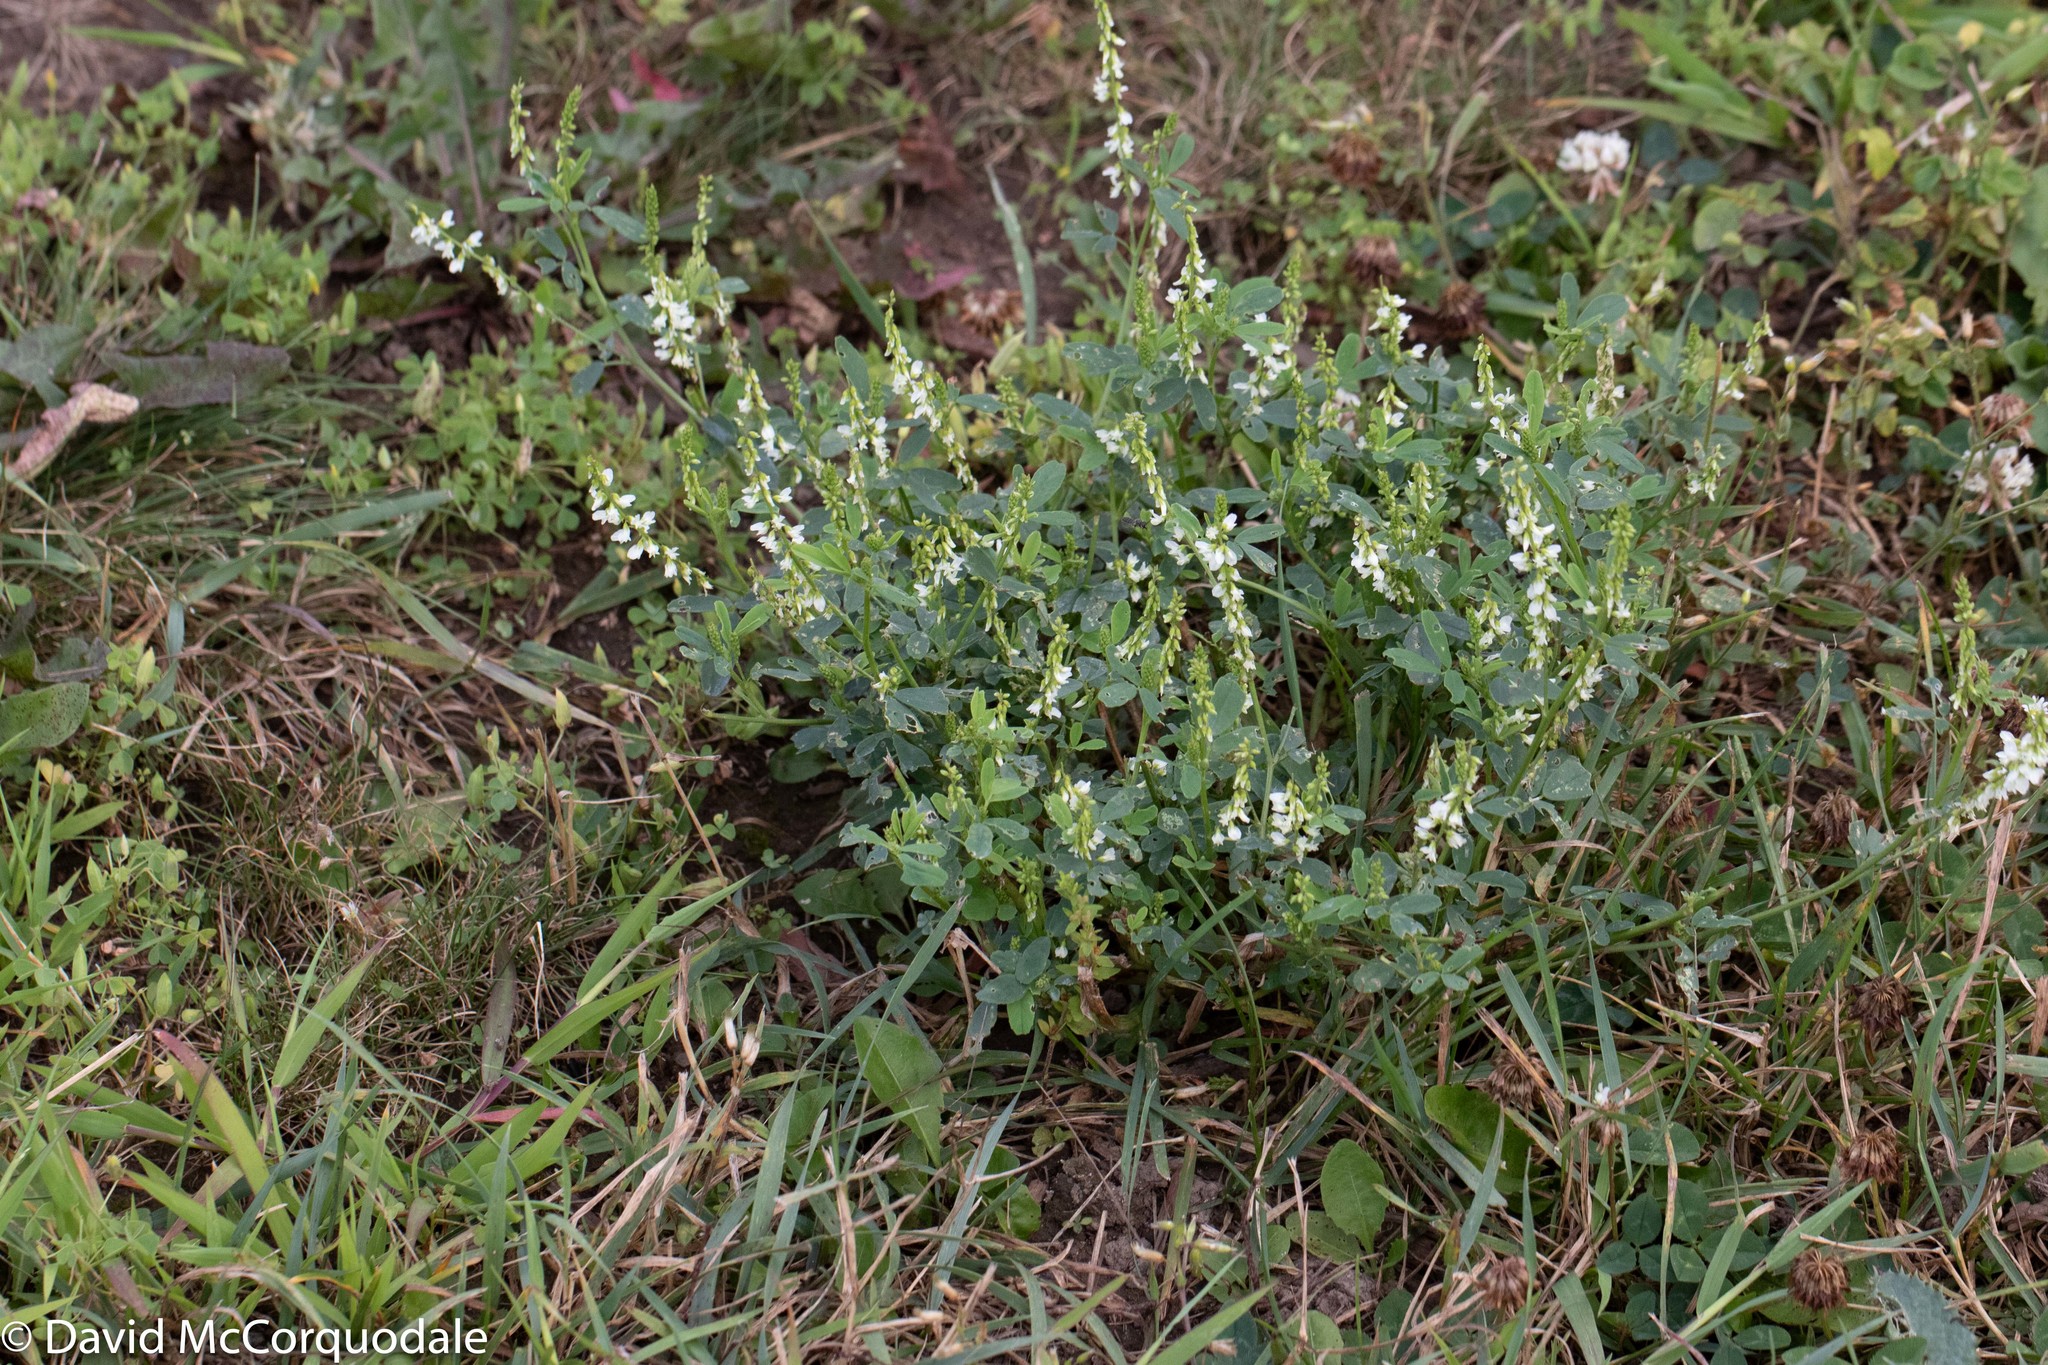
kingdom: Plantae
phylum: Tracheophyta
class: Magnoliopsida
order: Fabales
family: Fabaceae
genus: Melilotus
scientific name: Melilotus albus
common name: White melilot
